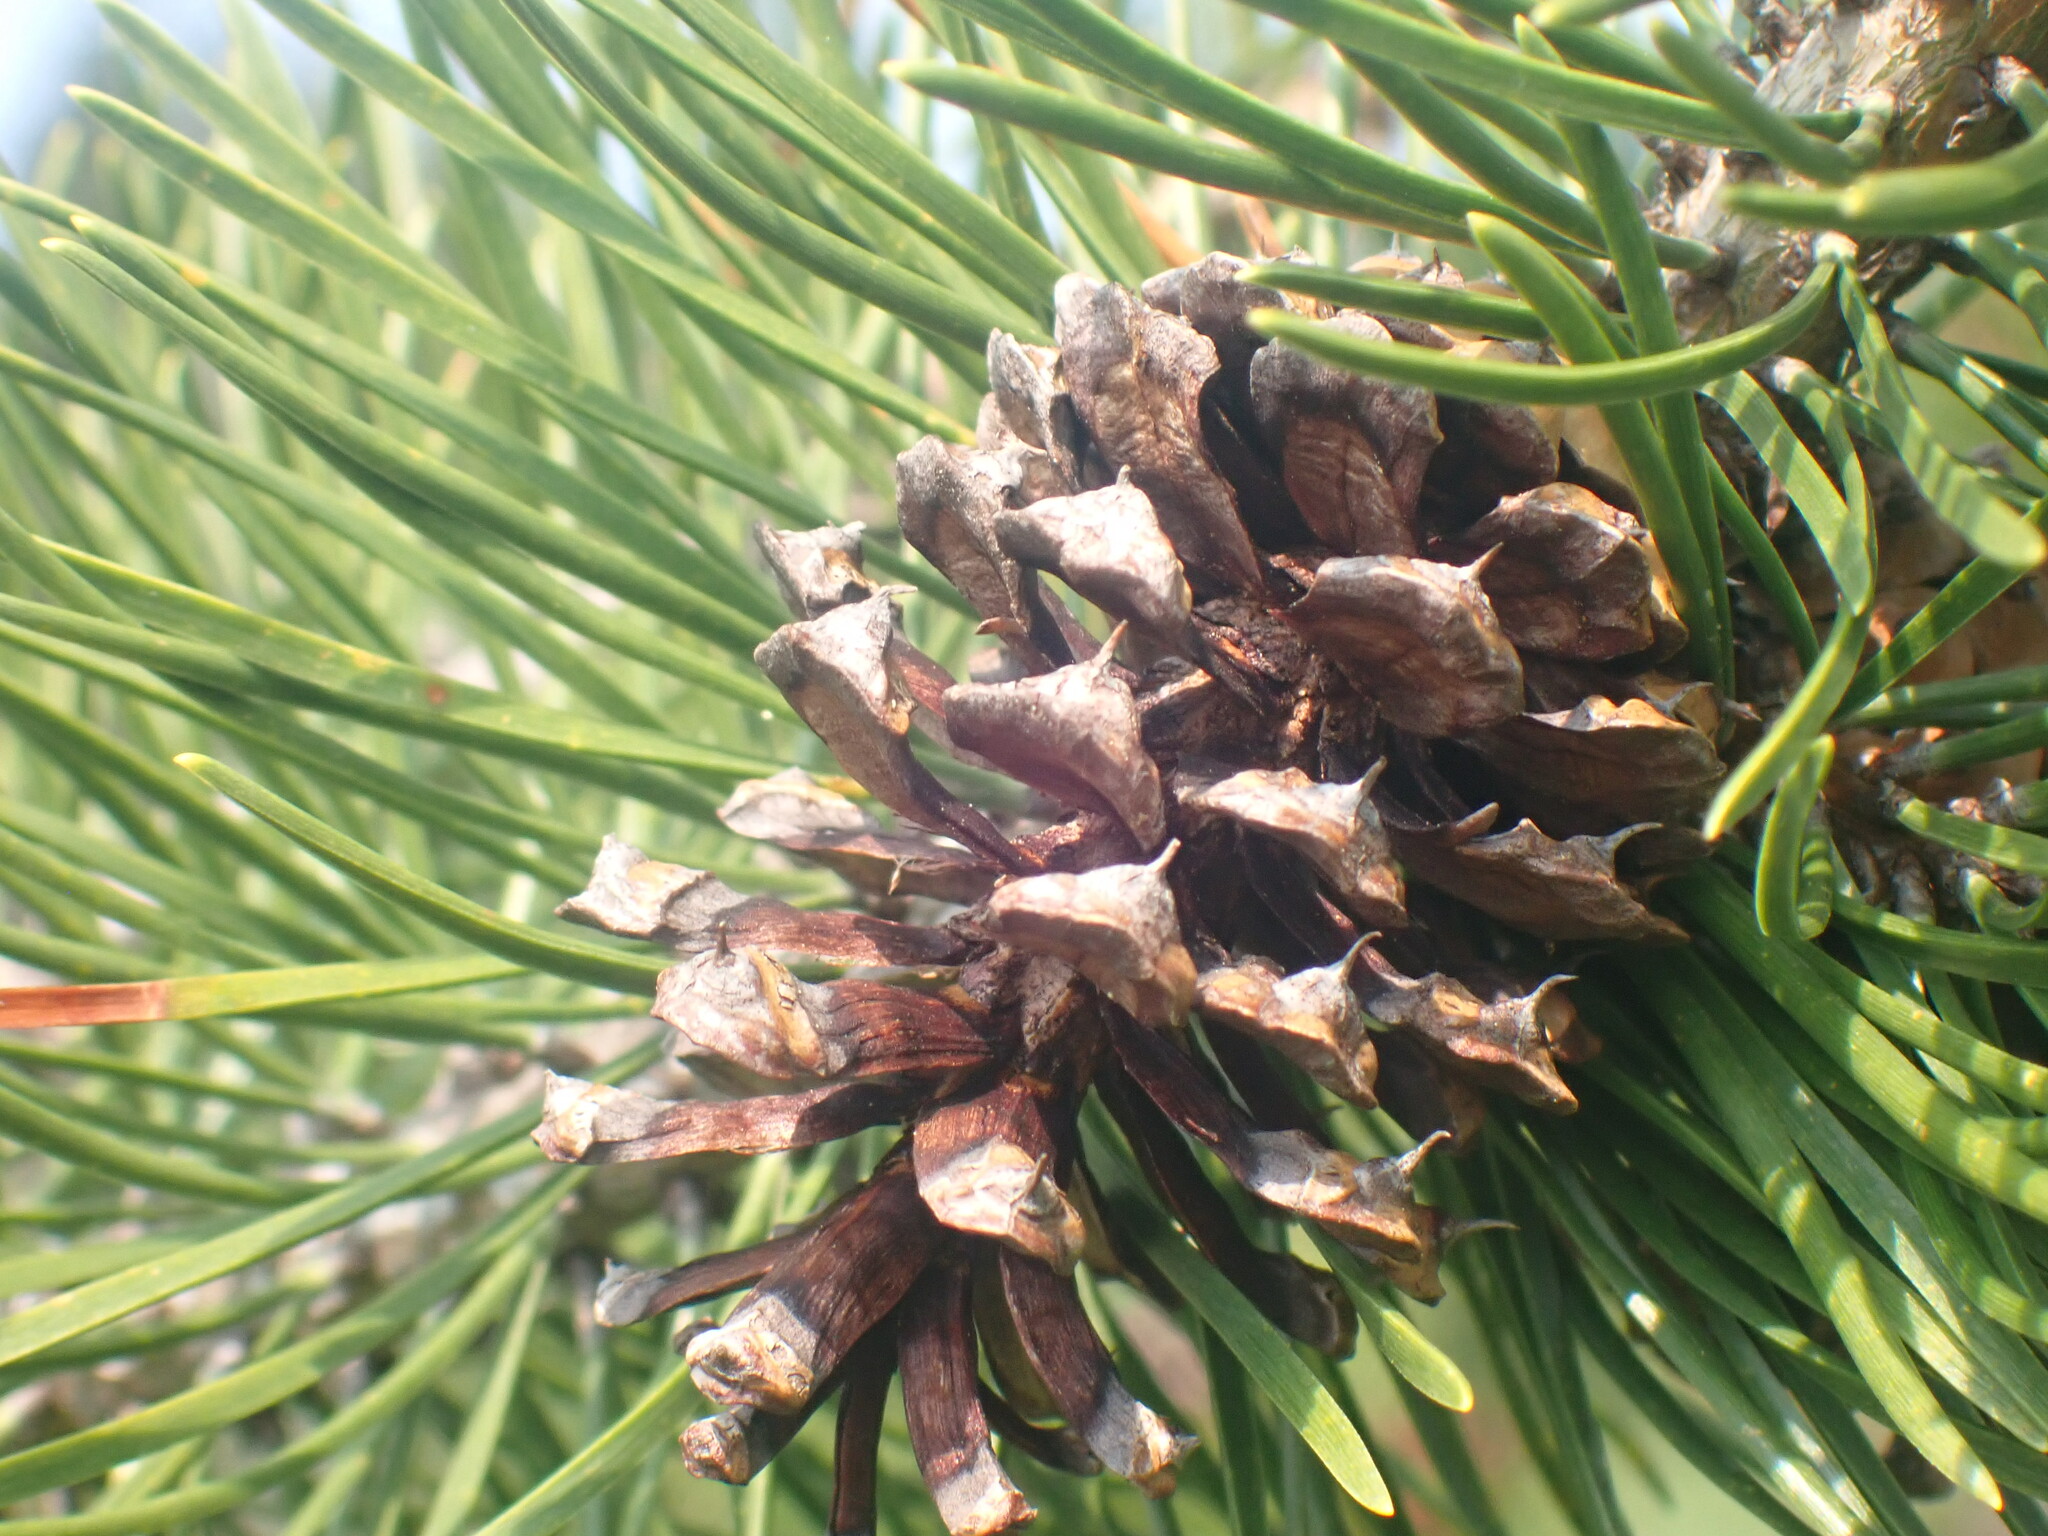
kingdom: Plantae
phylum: Tracheophyta
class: Pinopsida
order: Pinales
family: Pinaceae
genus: Pinus
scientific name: Pinus contorta
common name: Lodgepole pine
